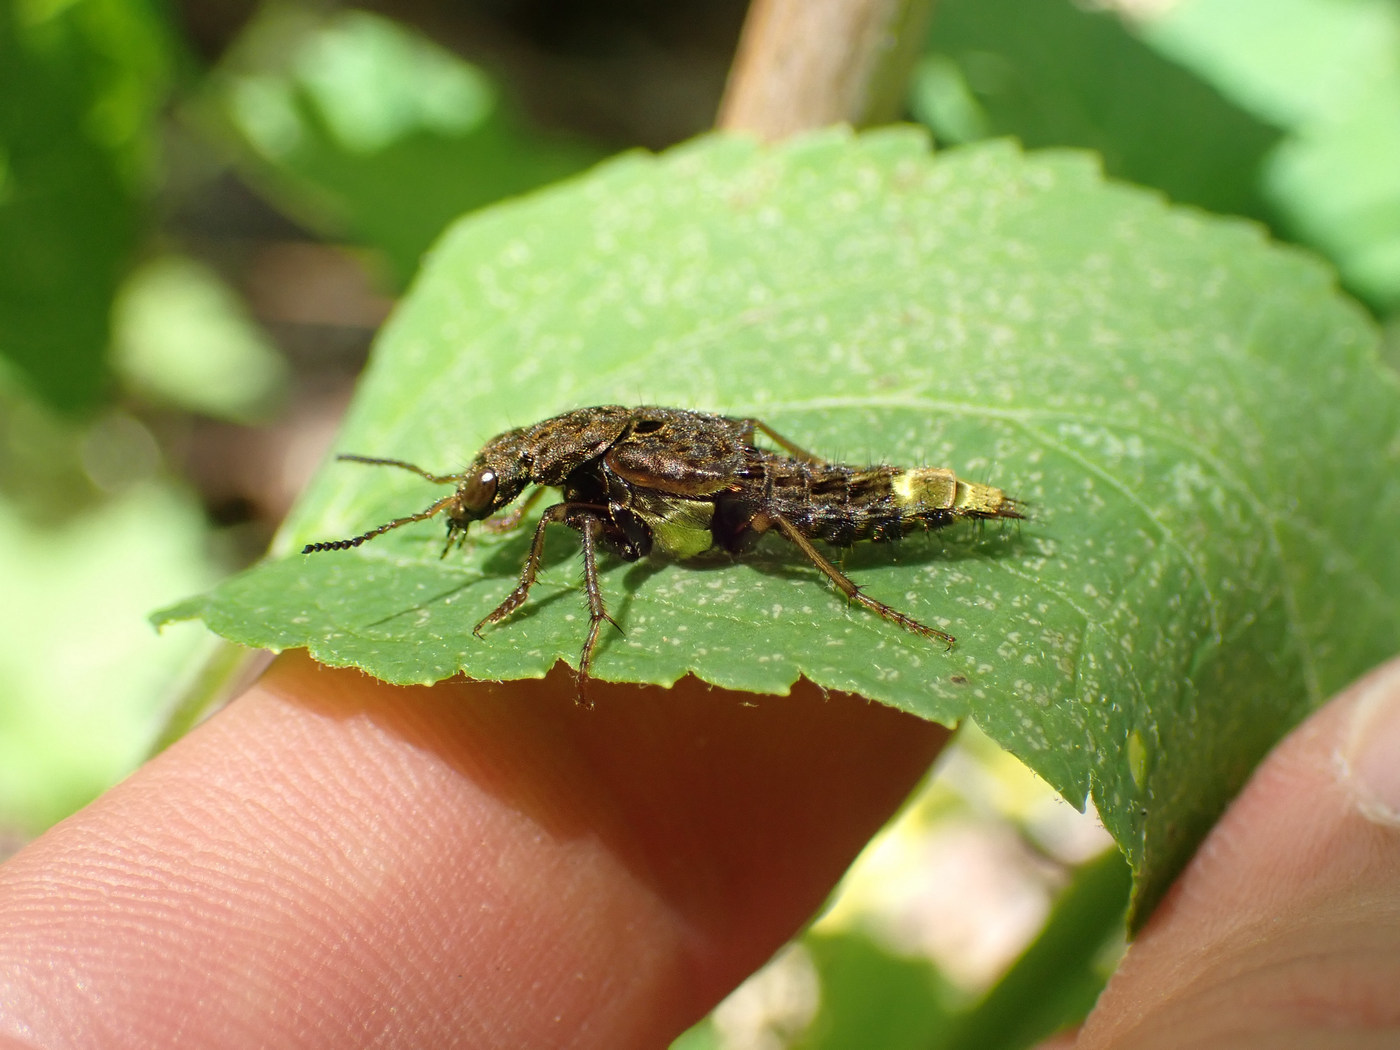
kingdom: Animalia
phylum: Arthropoda
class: Insecta
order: Coleoptera
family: Staphylinidae
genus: Ontholestes
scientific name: Ontholestes cingulatus
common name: Gold-and-brown rove beetle
